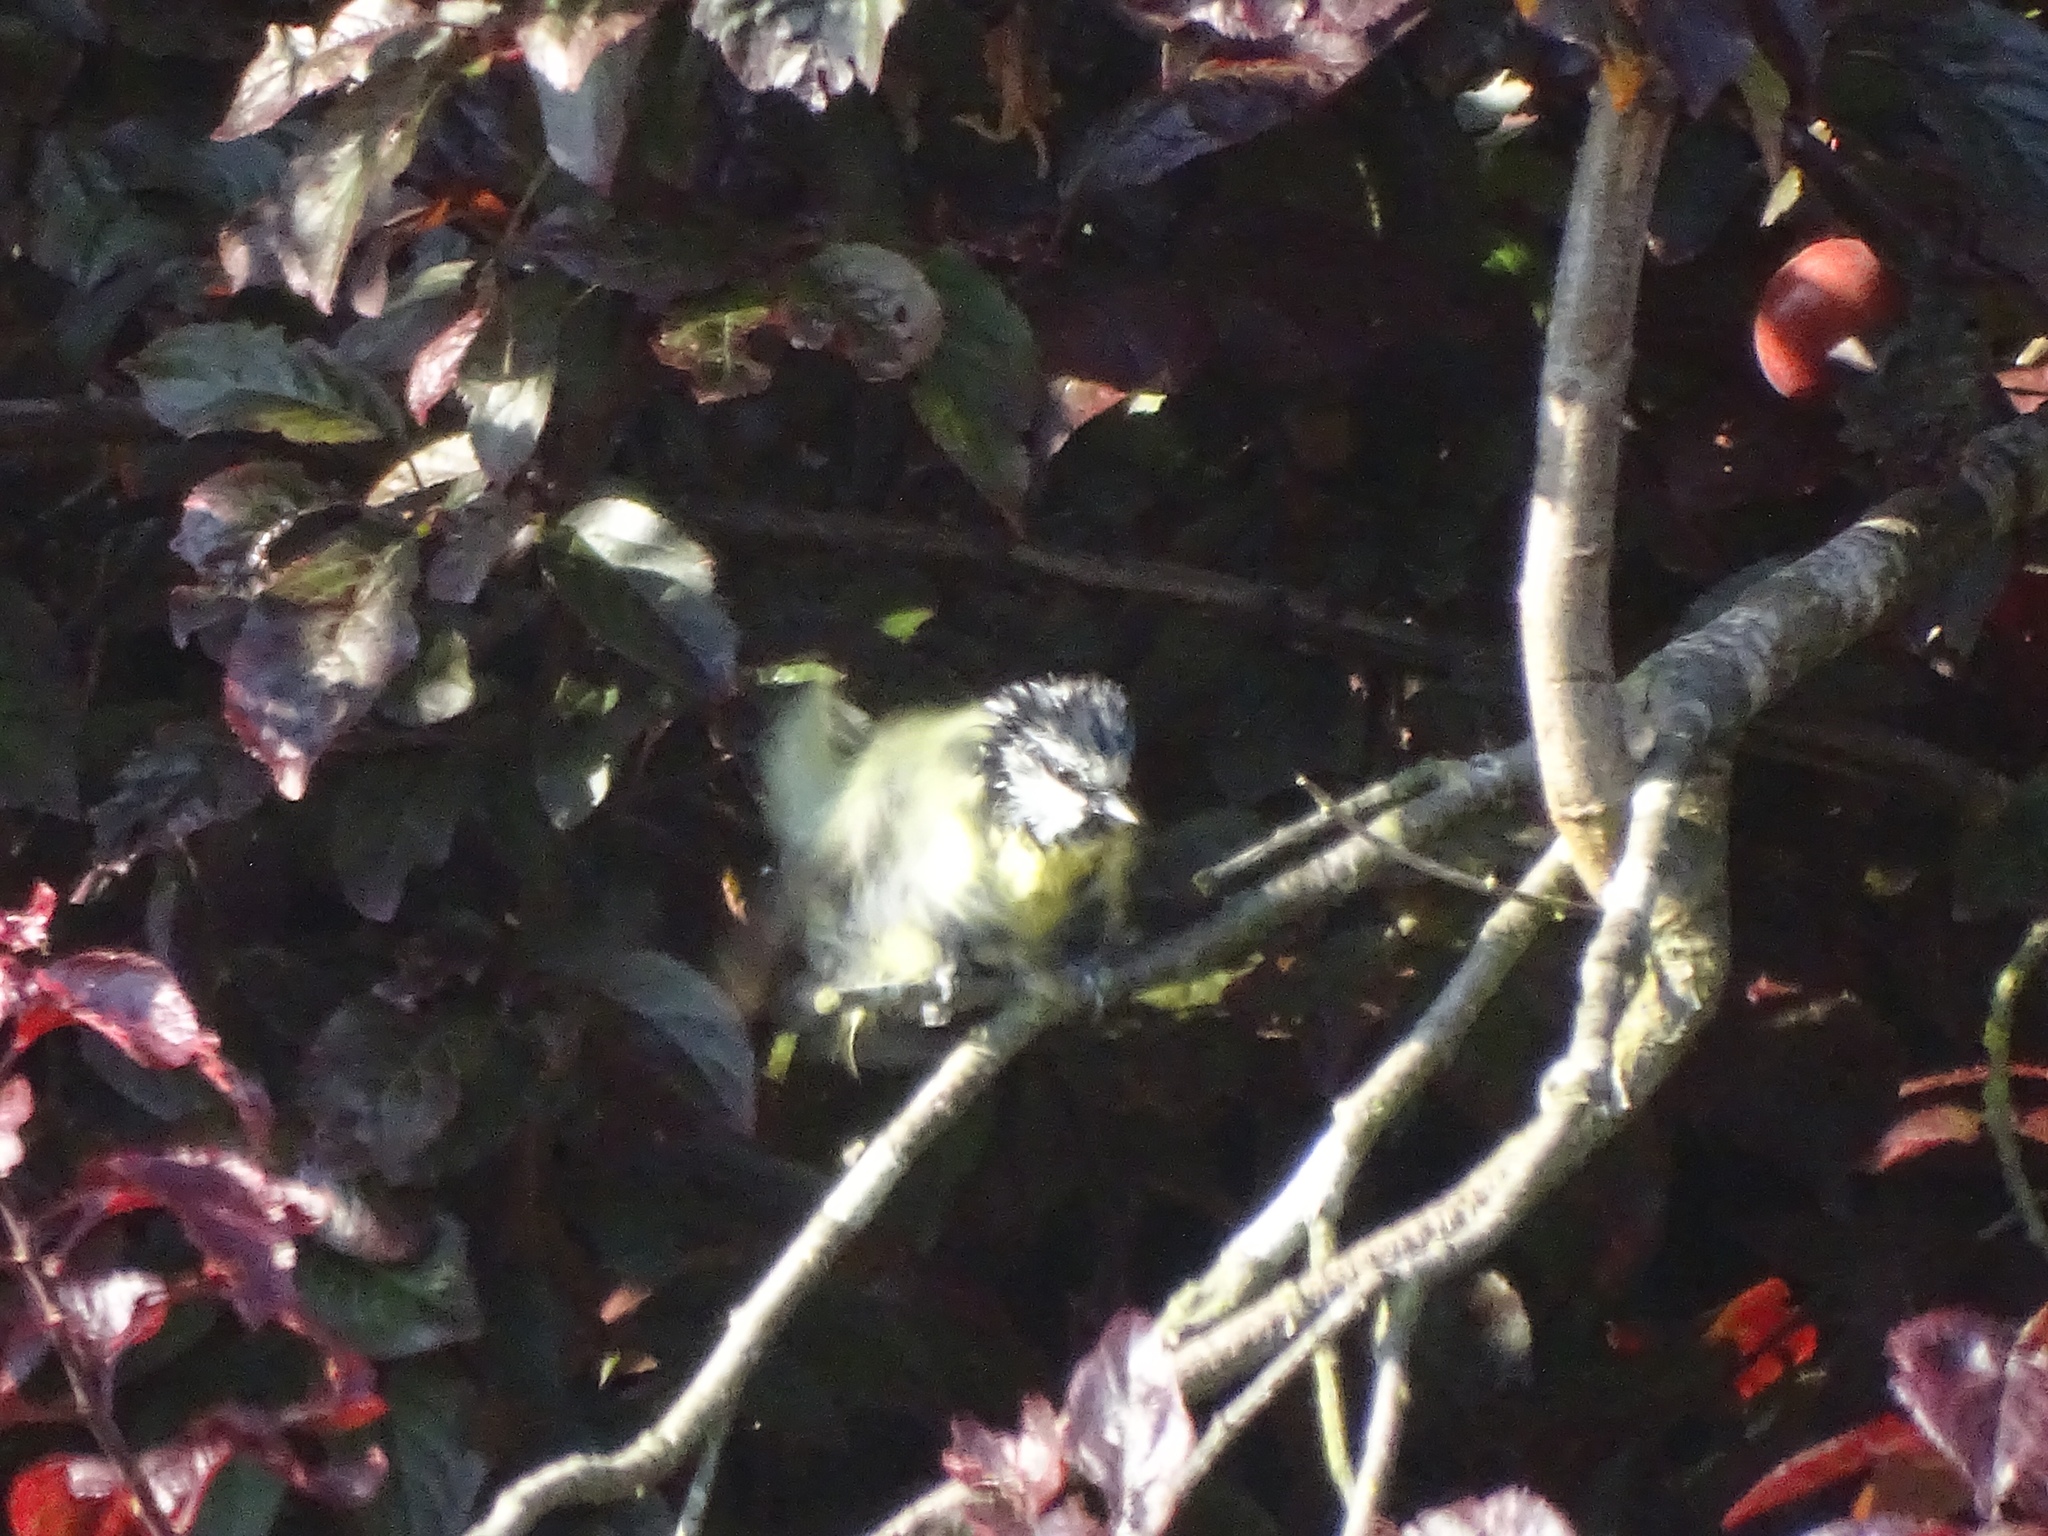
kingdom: Animalia
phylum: Chordata
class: Aves
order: Passeriformes
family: Paridae
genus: Cyanistes
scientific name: Cyanistes caeruleus
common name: Eurasian blue tit
